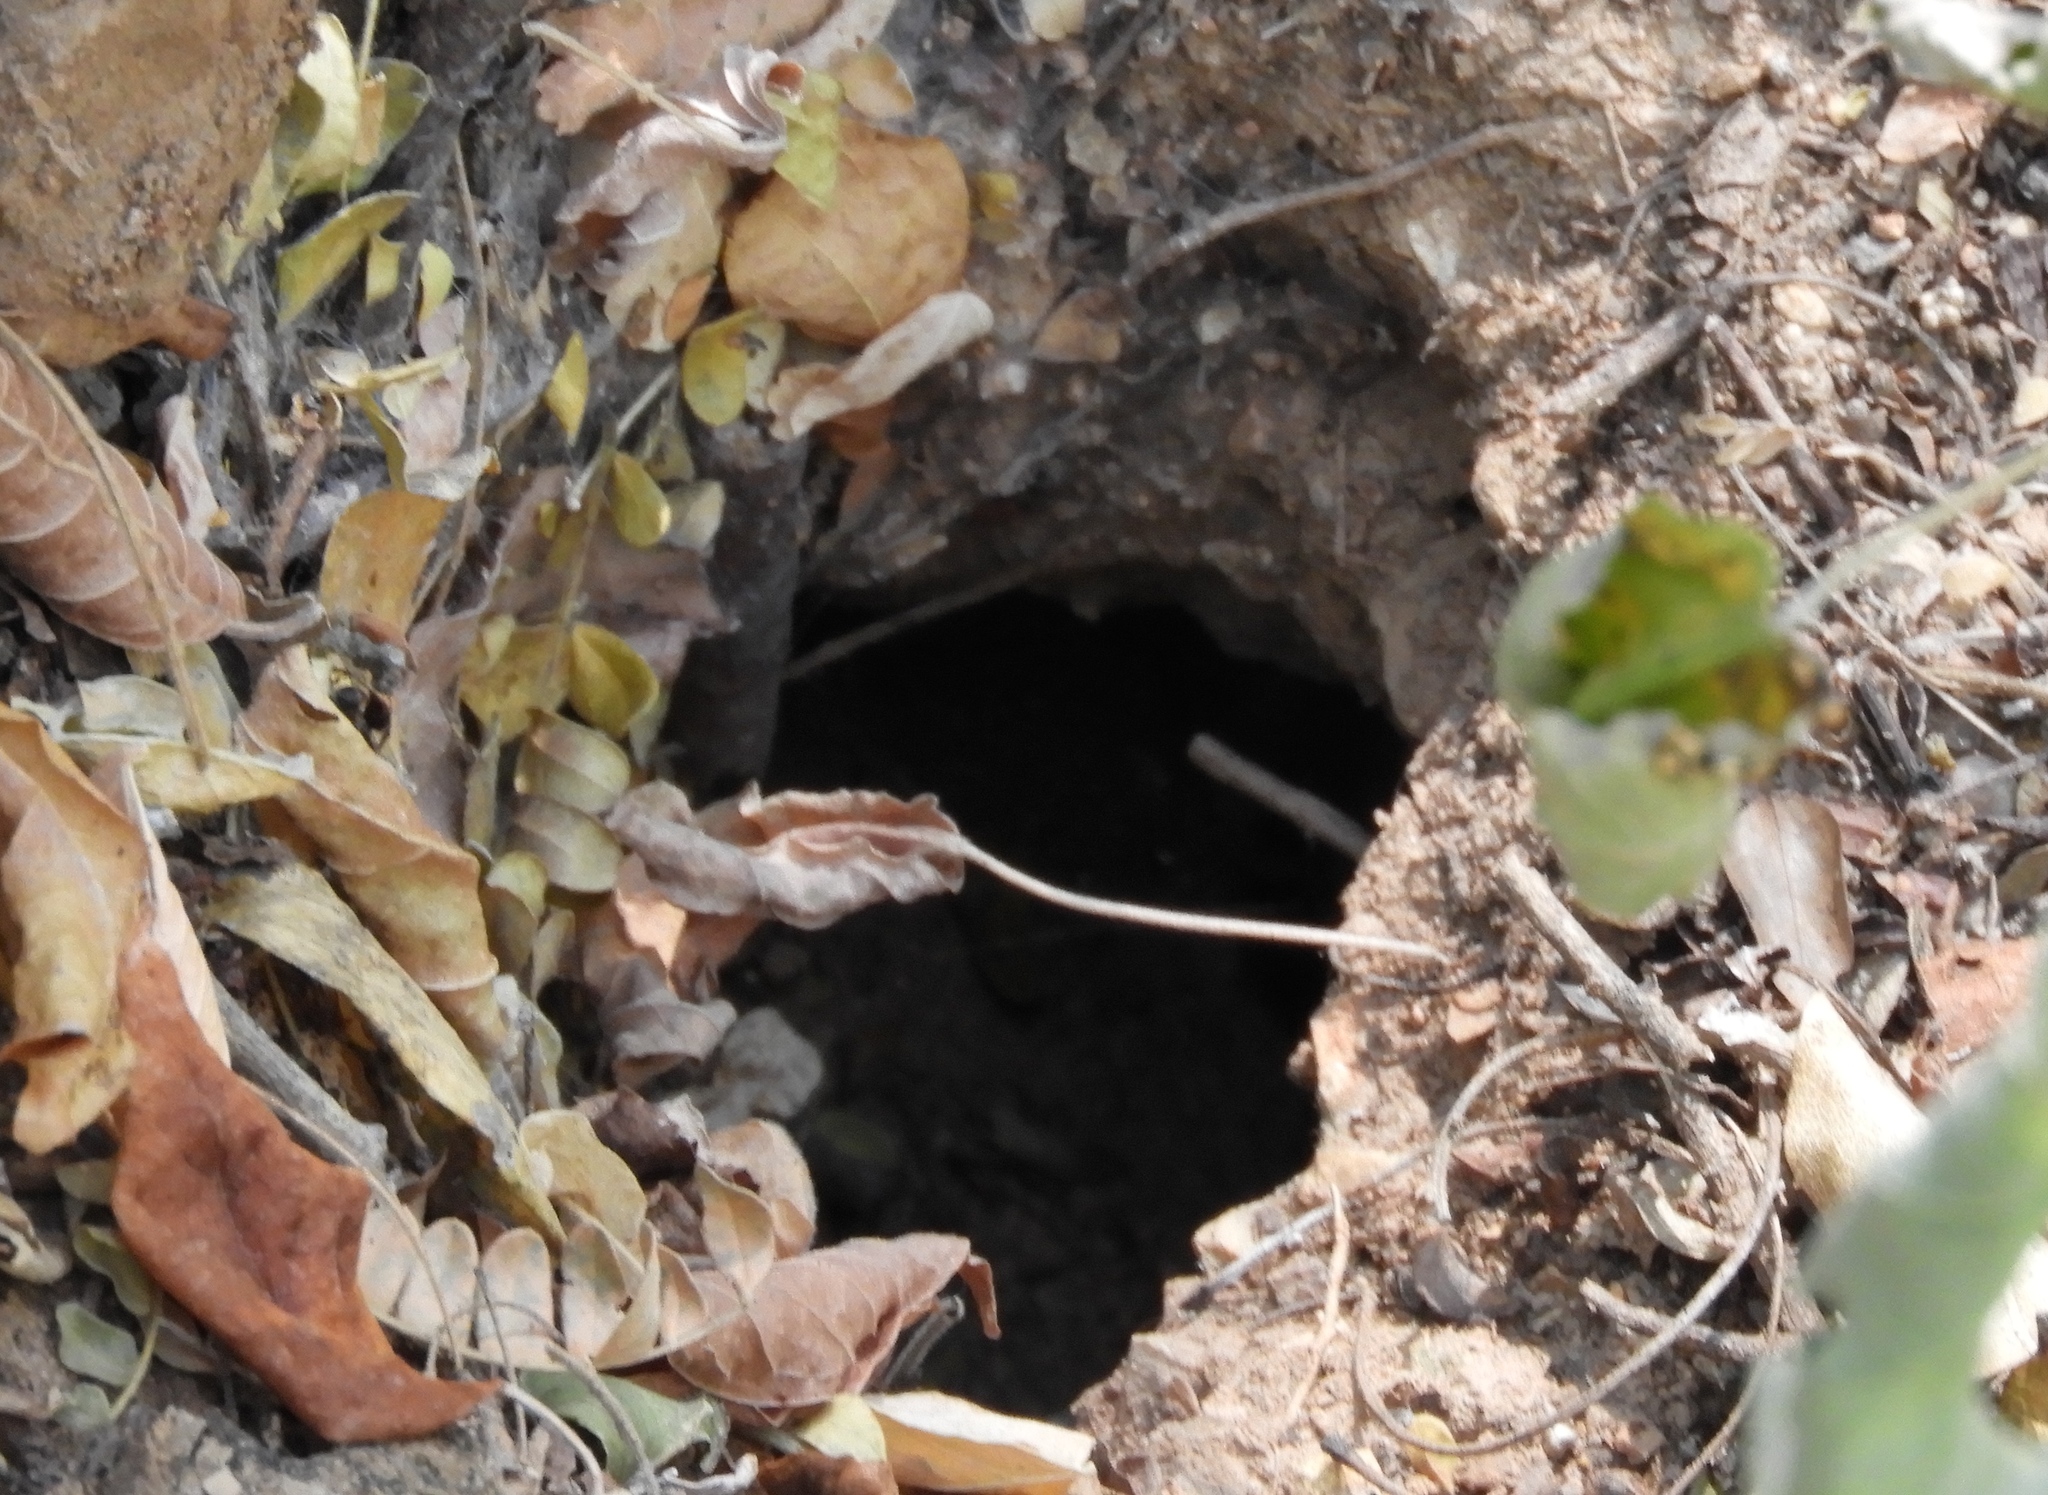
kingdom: Animalia
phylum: Arthropoda
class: Arachnida
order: Araneae
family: Theraphosidae
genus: Brachypelma
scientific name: Brachypelma emilia
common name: Mexican redleg
